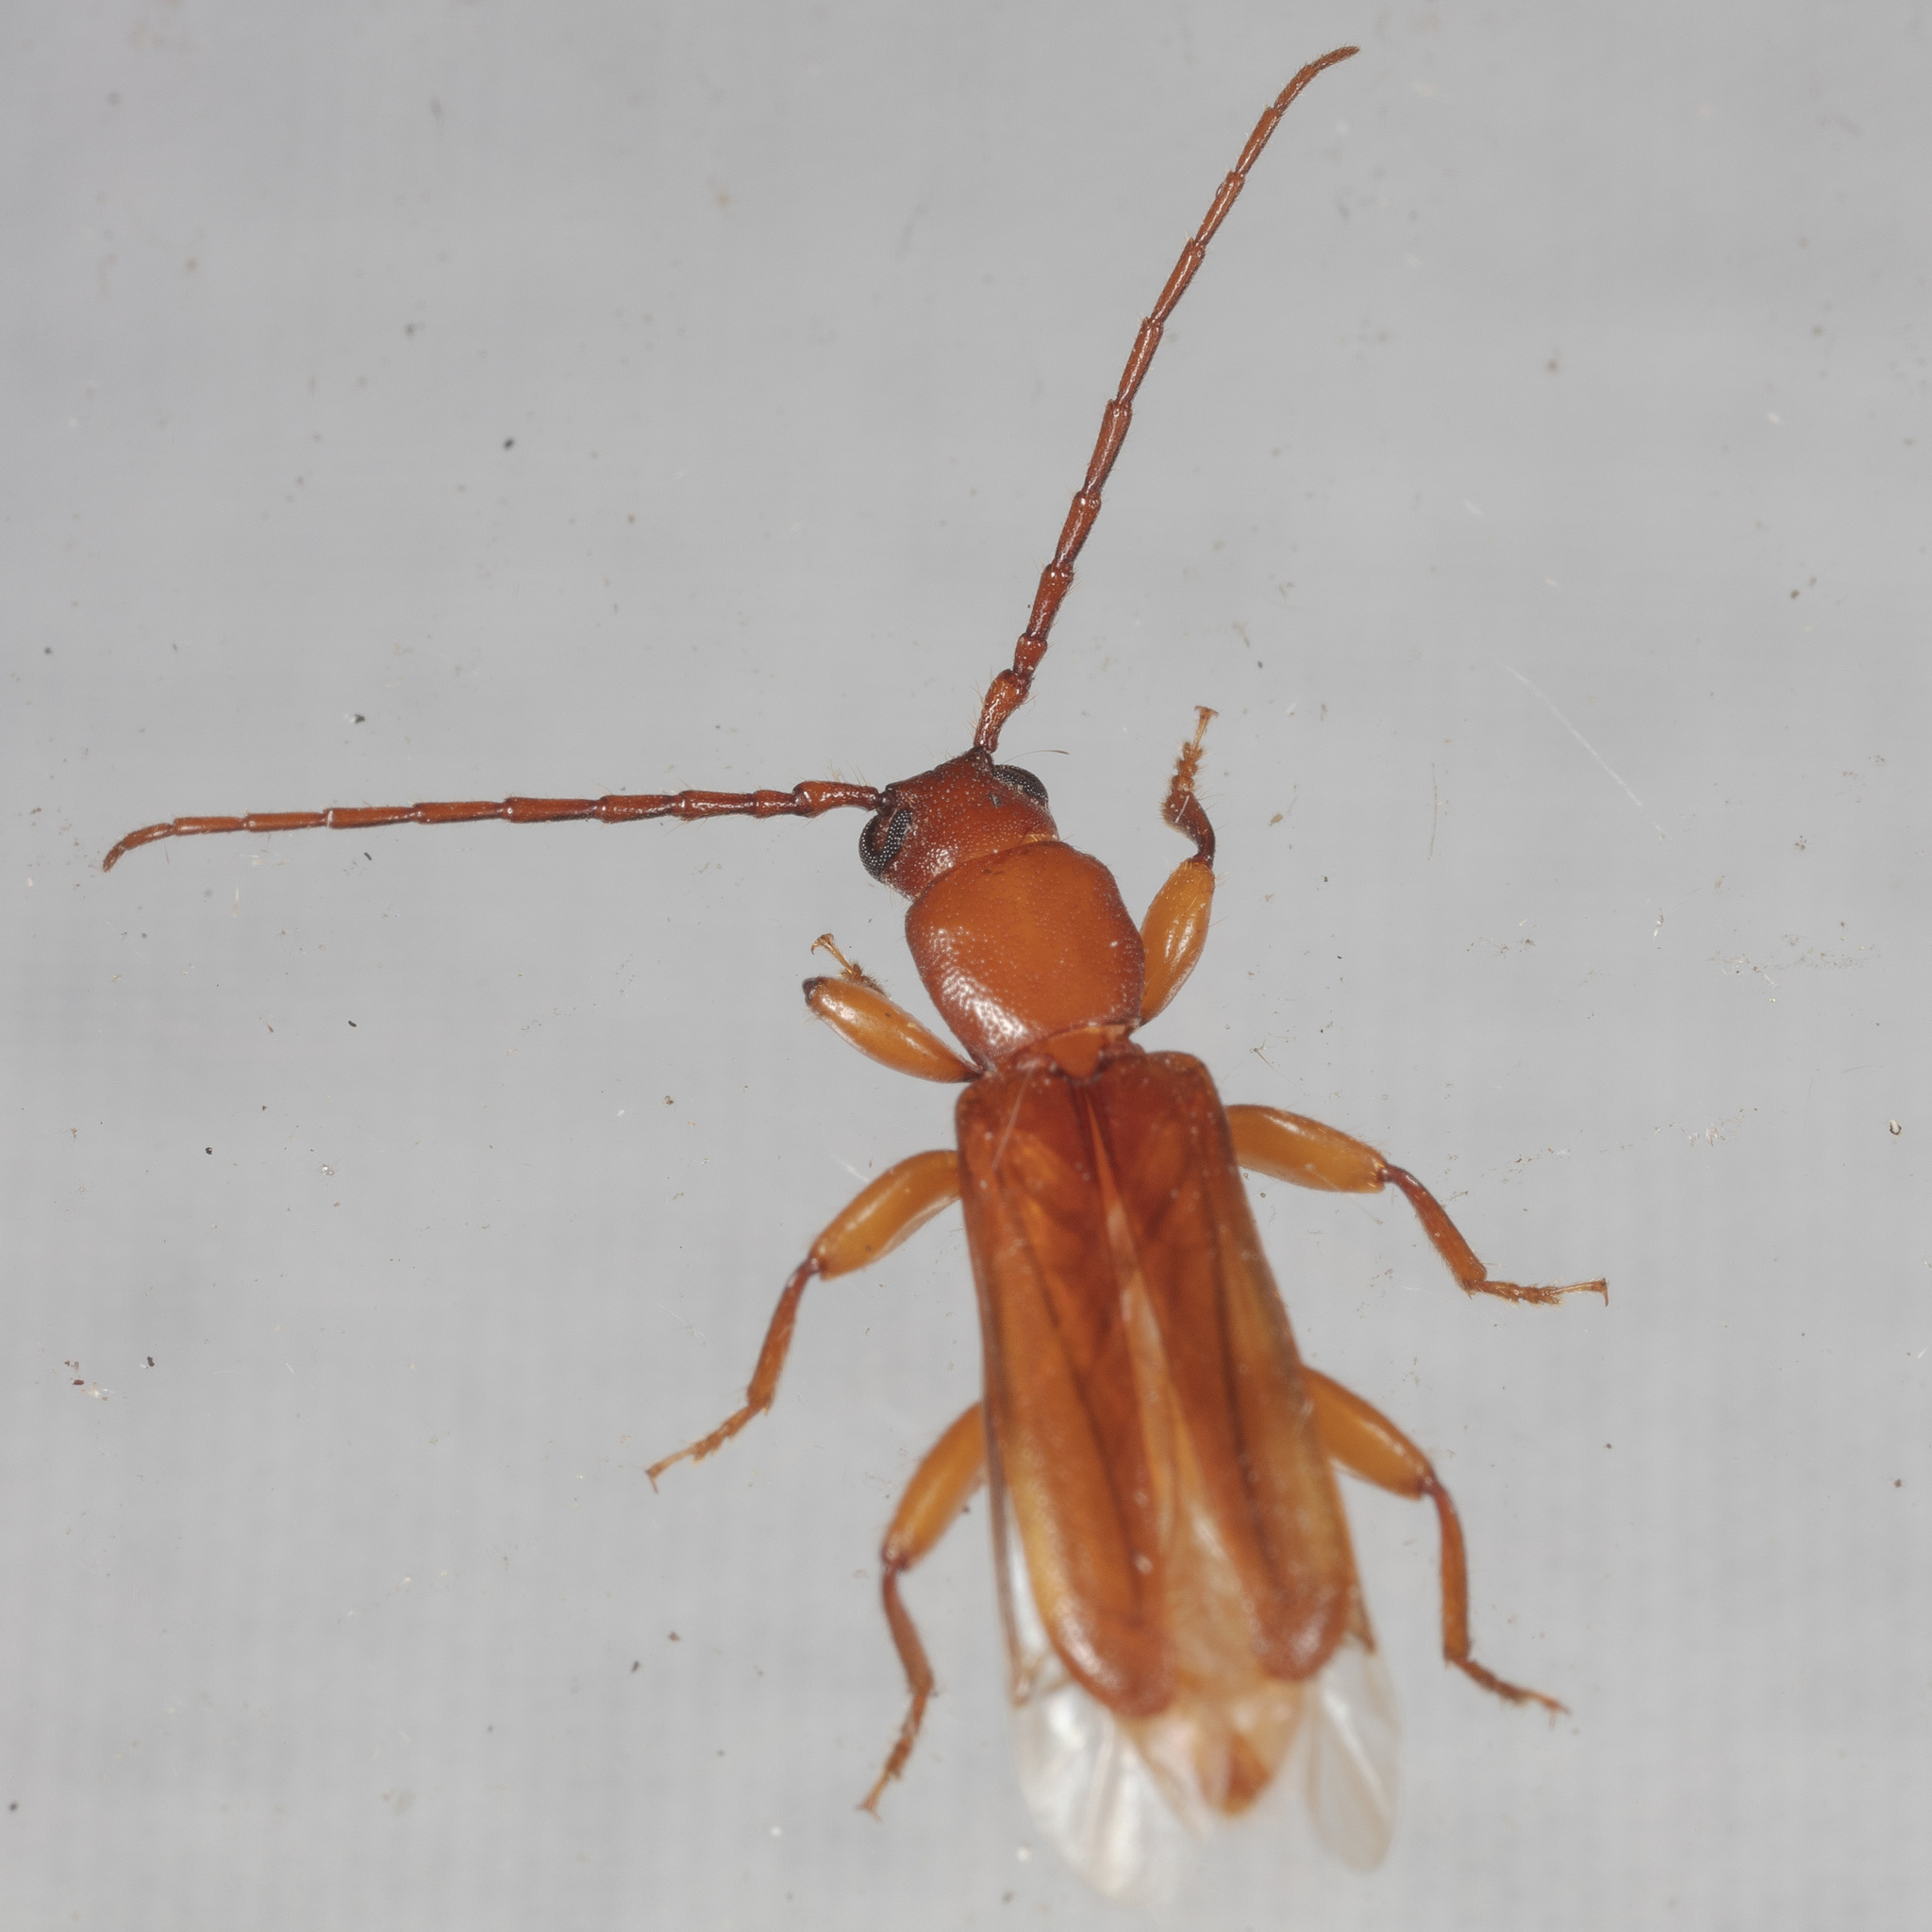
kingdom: Animalia
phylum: Arthropoda
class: Insecta
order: Coleoptera
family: Cerambycidae
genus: Smodicum
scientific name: Smodicum cucujiforme
